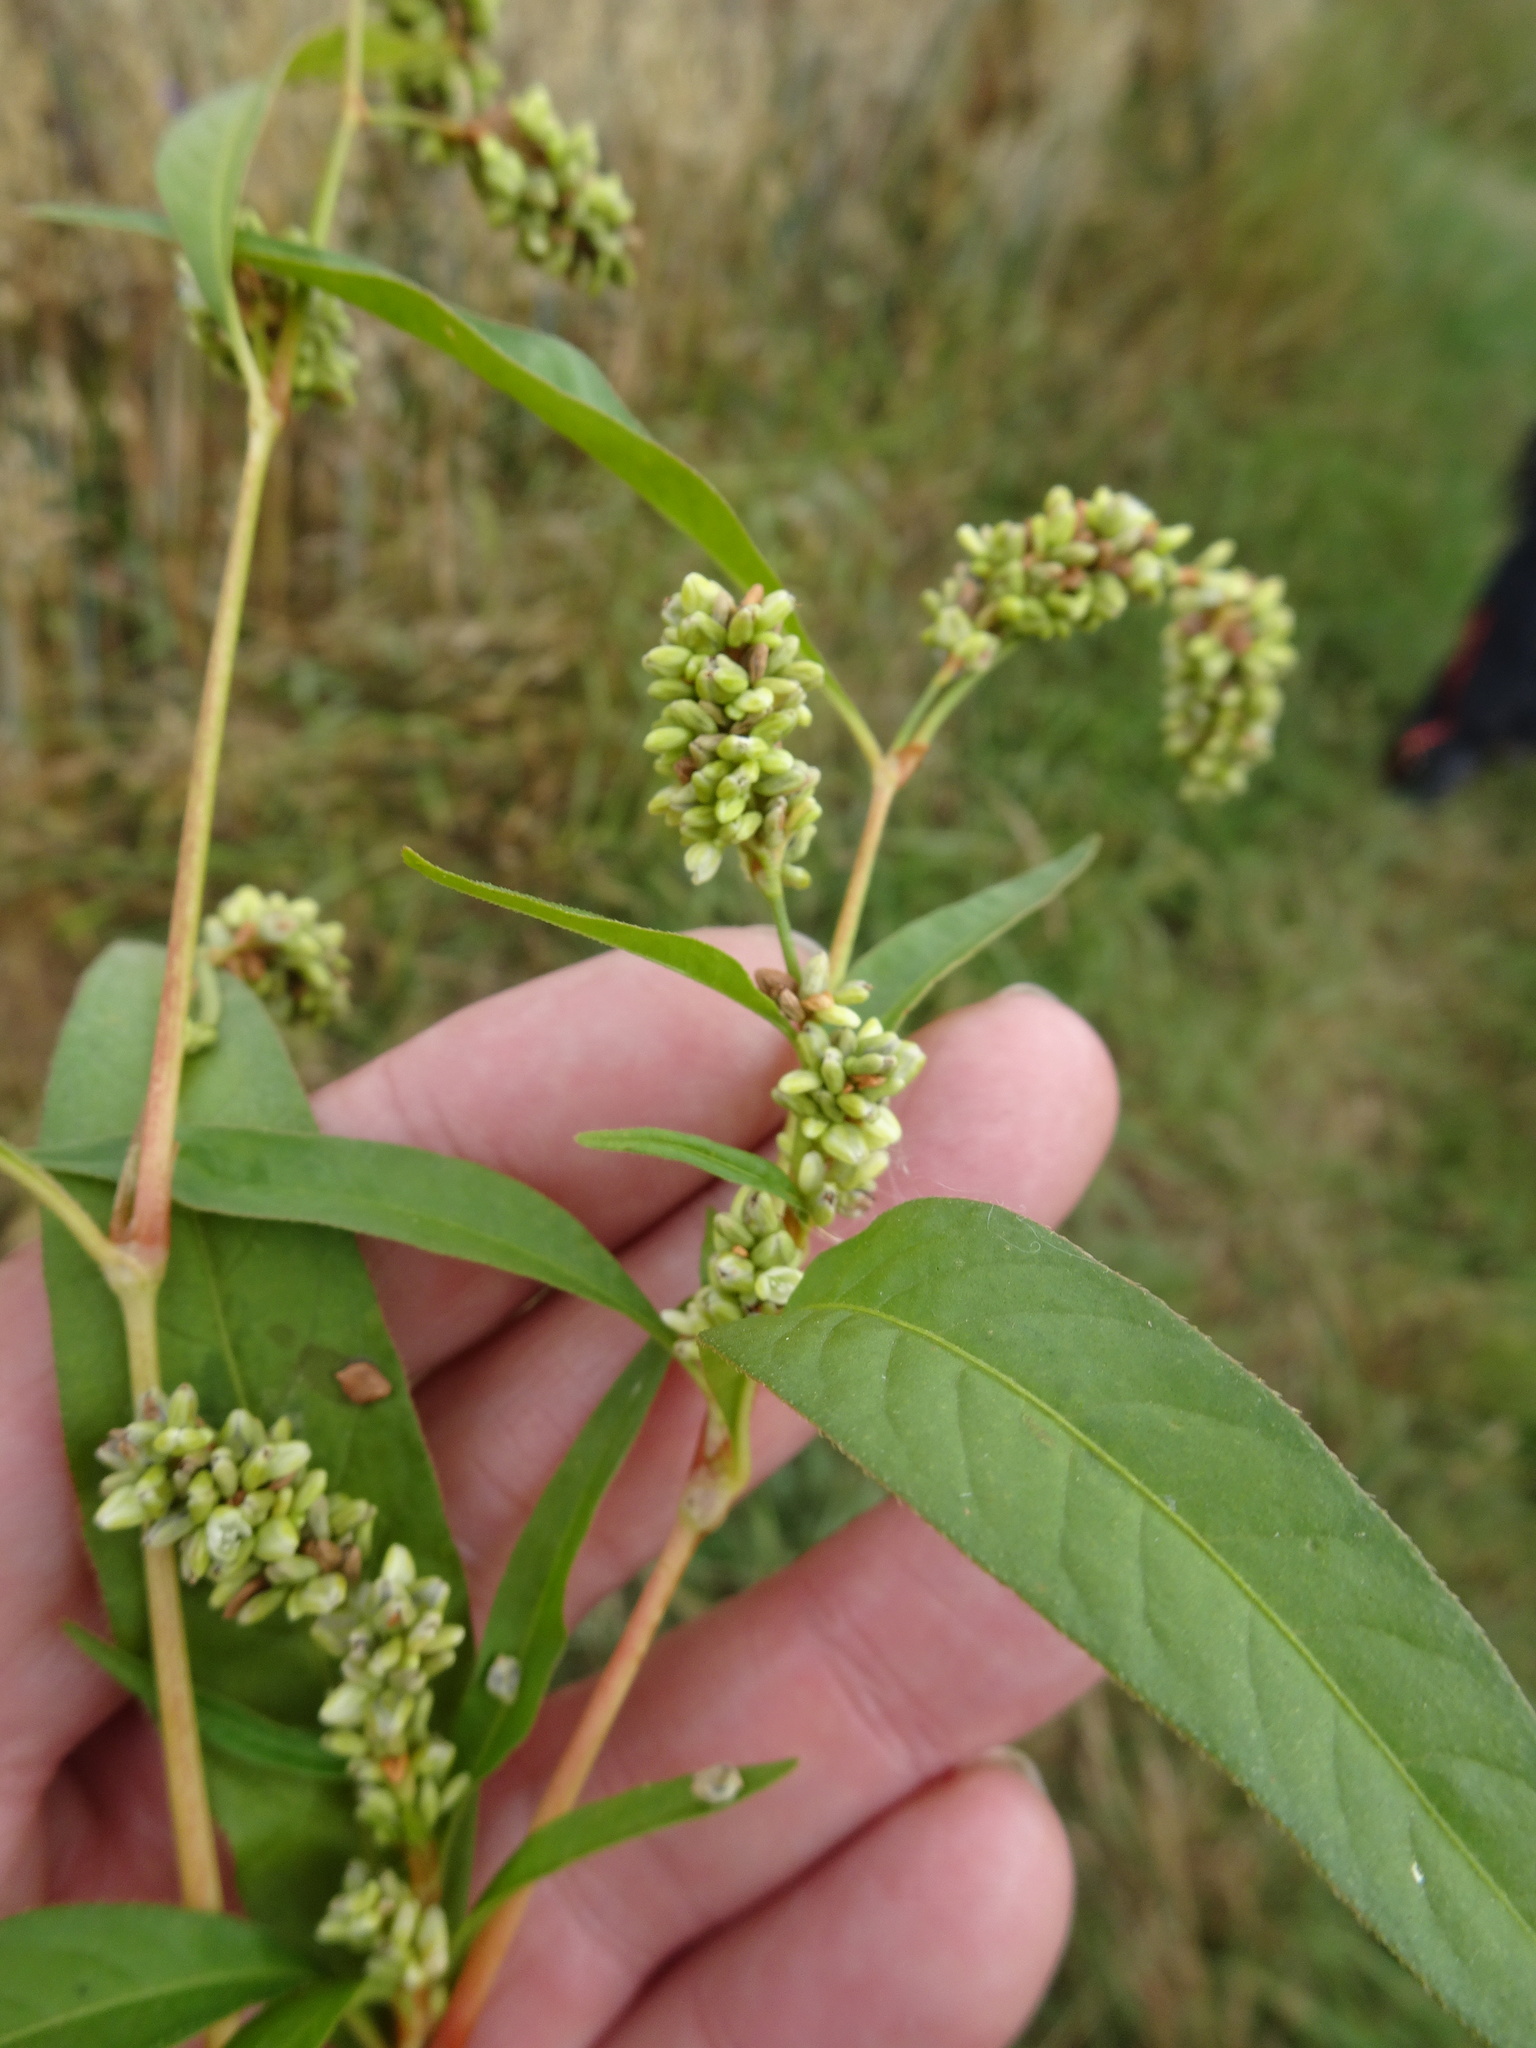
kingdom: Plantae
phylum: Tracheophyta
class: Magnoliopsida
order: Caryophyllales
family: Polygonaceae
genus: Persicaria
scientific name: Persicaria lapathifolia
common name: Curlytop knotweed
